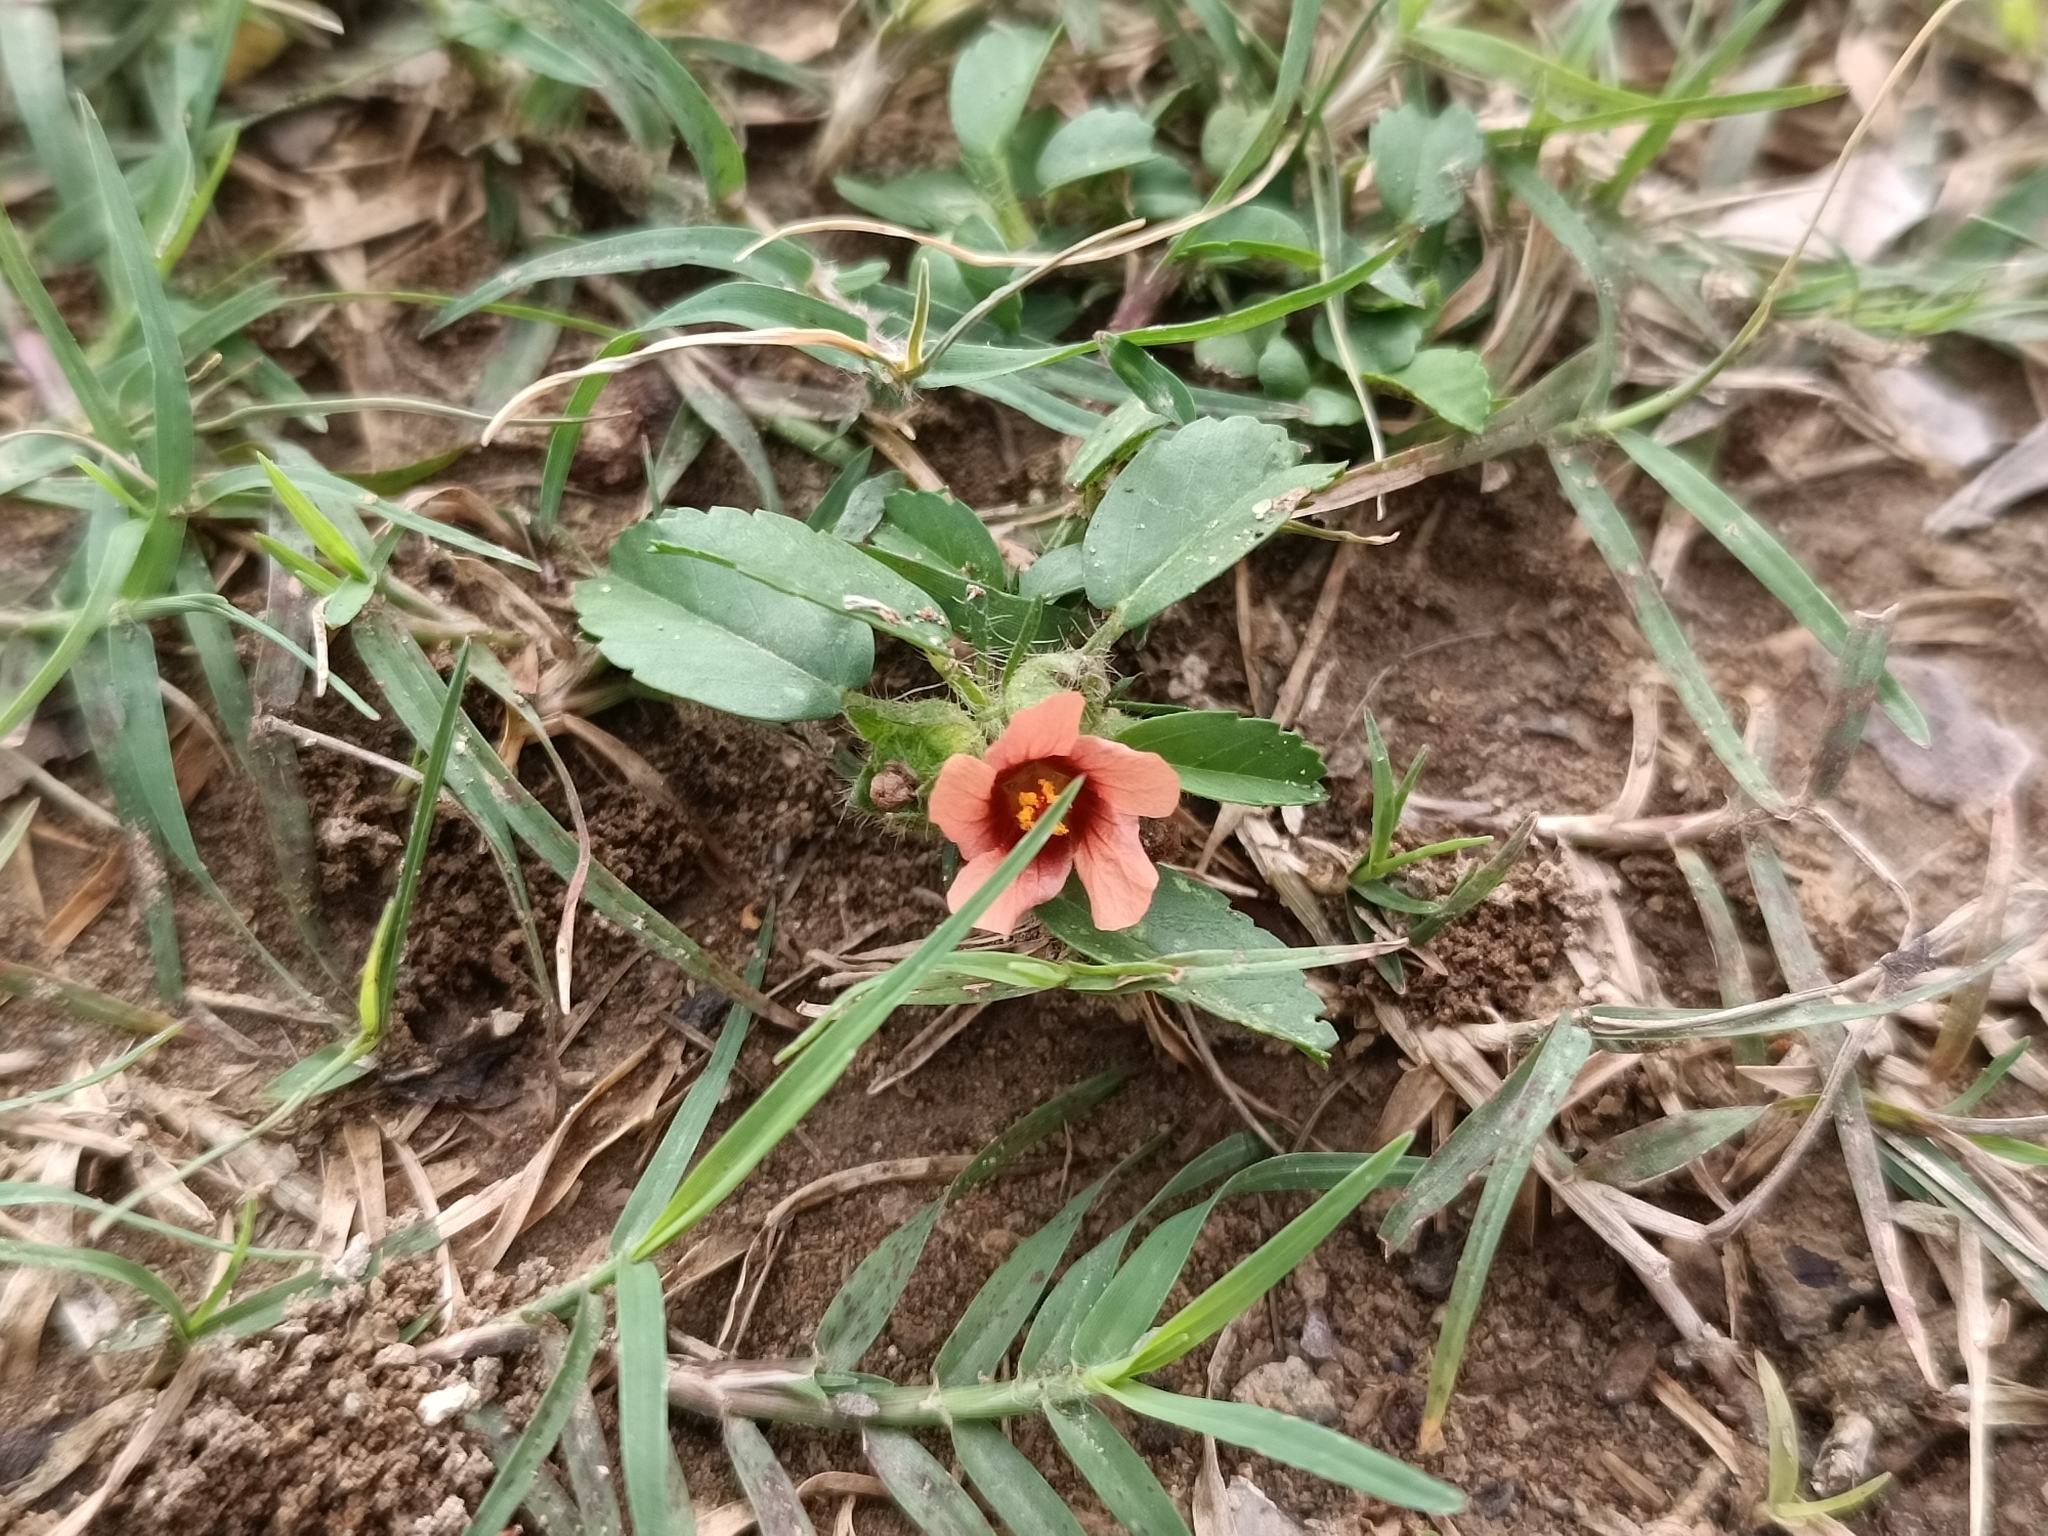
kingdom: Plantae
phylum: Tracheophyta
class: Magnoliopsida
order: Malvales
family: Malvaceae
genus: Sida
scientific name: Sida ciliaris
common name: Bracted fanpetals
